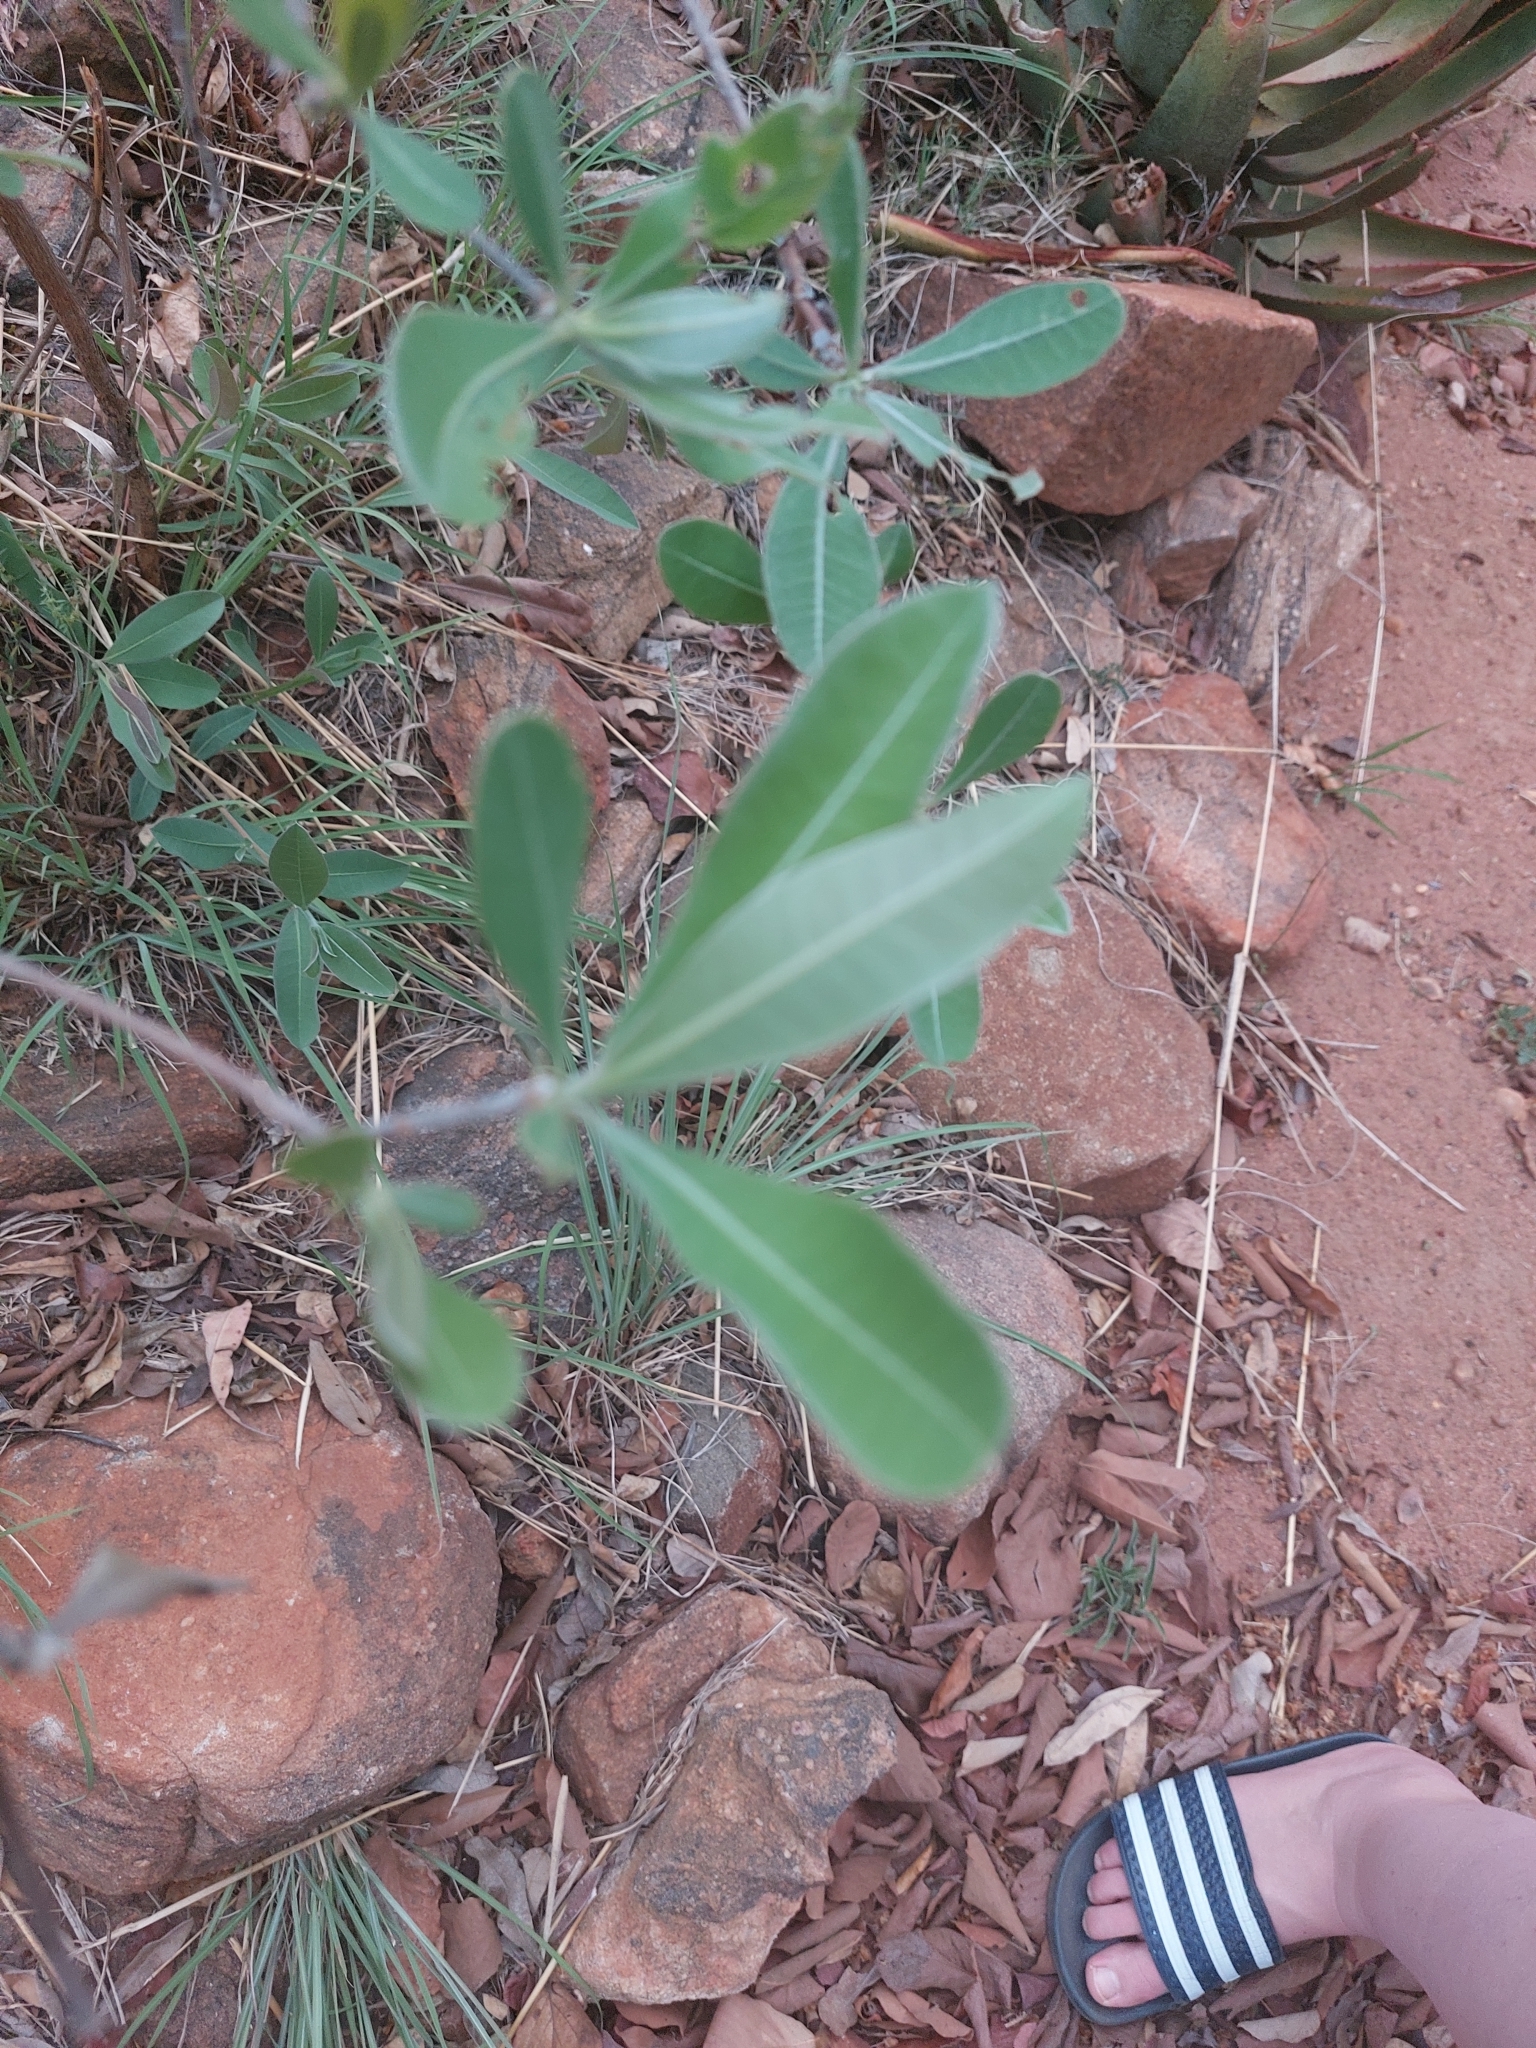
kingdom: Plantae
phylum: Tracheophyta
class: Magnoliopsida
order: Myrtales
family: Combretaceae
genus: Terminalia
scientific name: Terminalia sericea
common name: Clusterleaf
